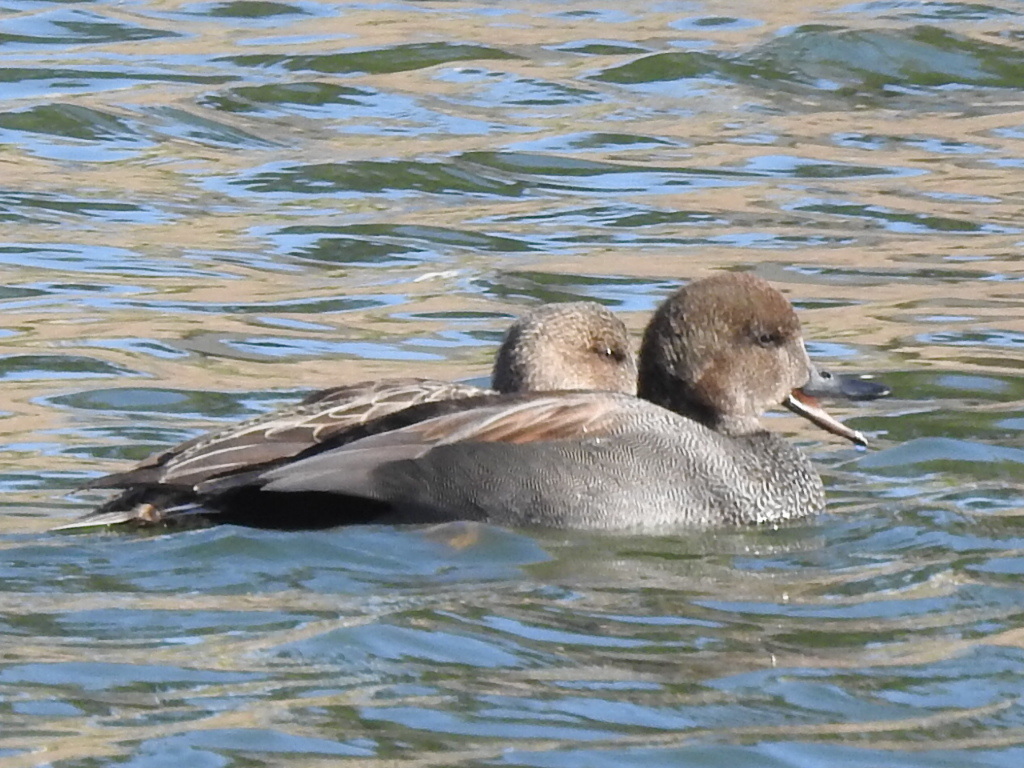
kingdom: Animalia
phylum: Chordata
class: Aves
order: Anseriformes
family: Anatidae
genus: Mareca
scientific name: Mareca strepera
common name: Gadwall
